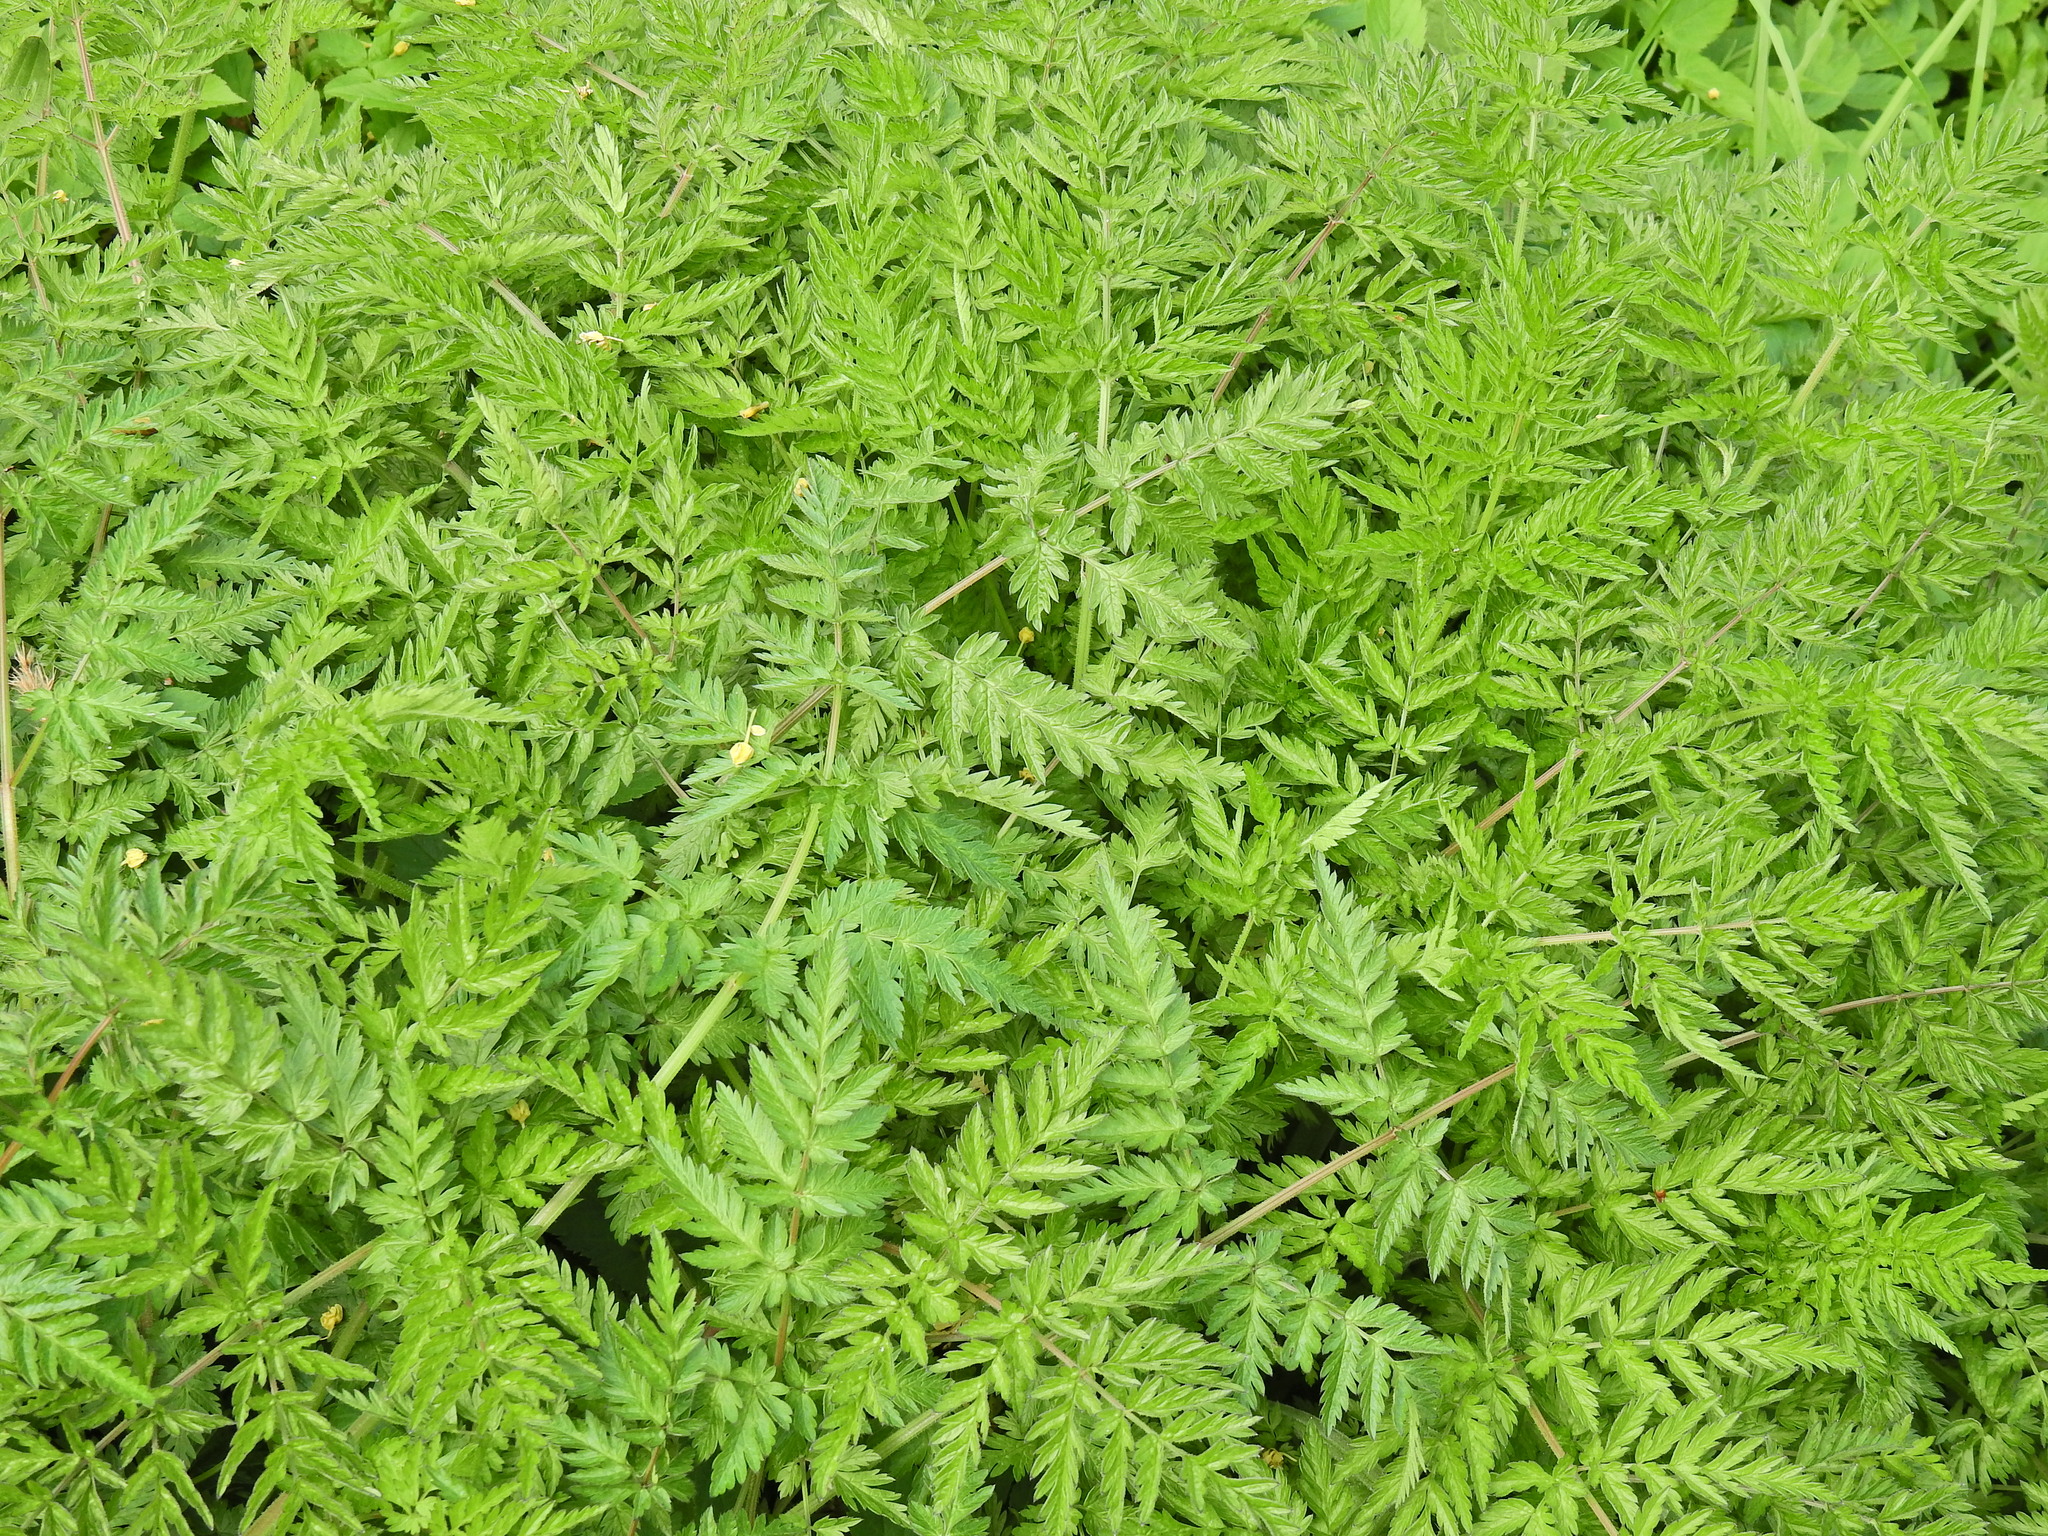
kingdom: Plantae
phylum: Tracheophyta
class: Magnoliopsida
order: Apiales
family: Apiaceae
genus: Anthriscus
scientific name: Anthriscus sylvestris
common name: Cow parsley
